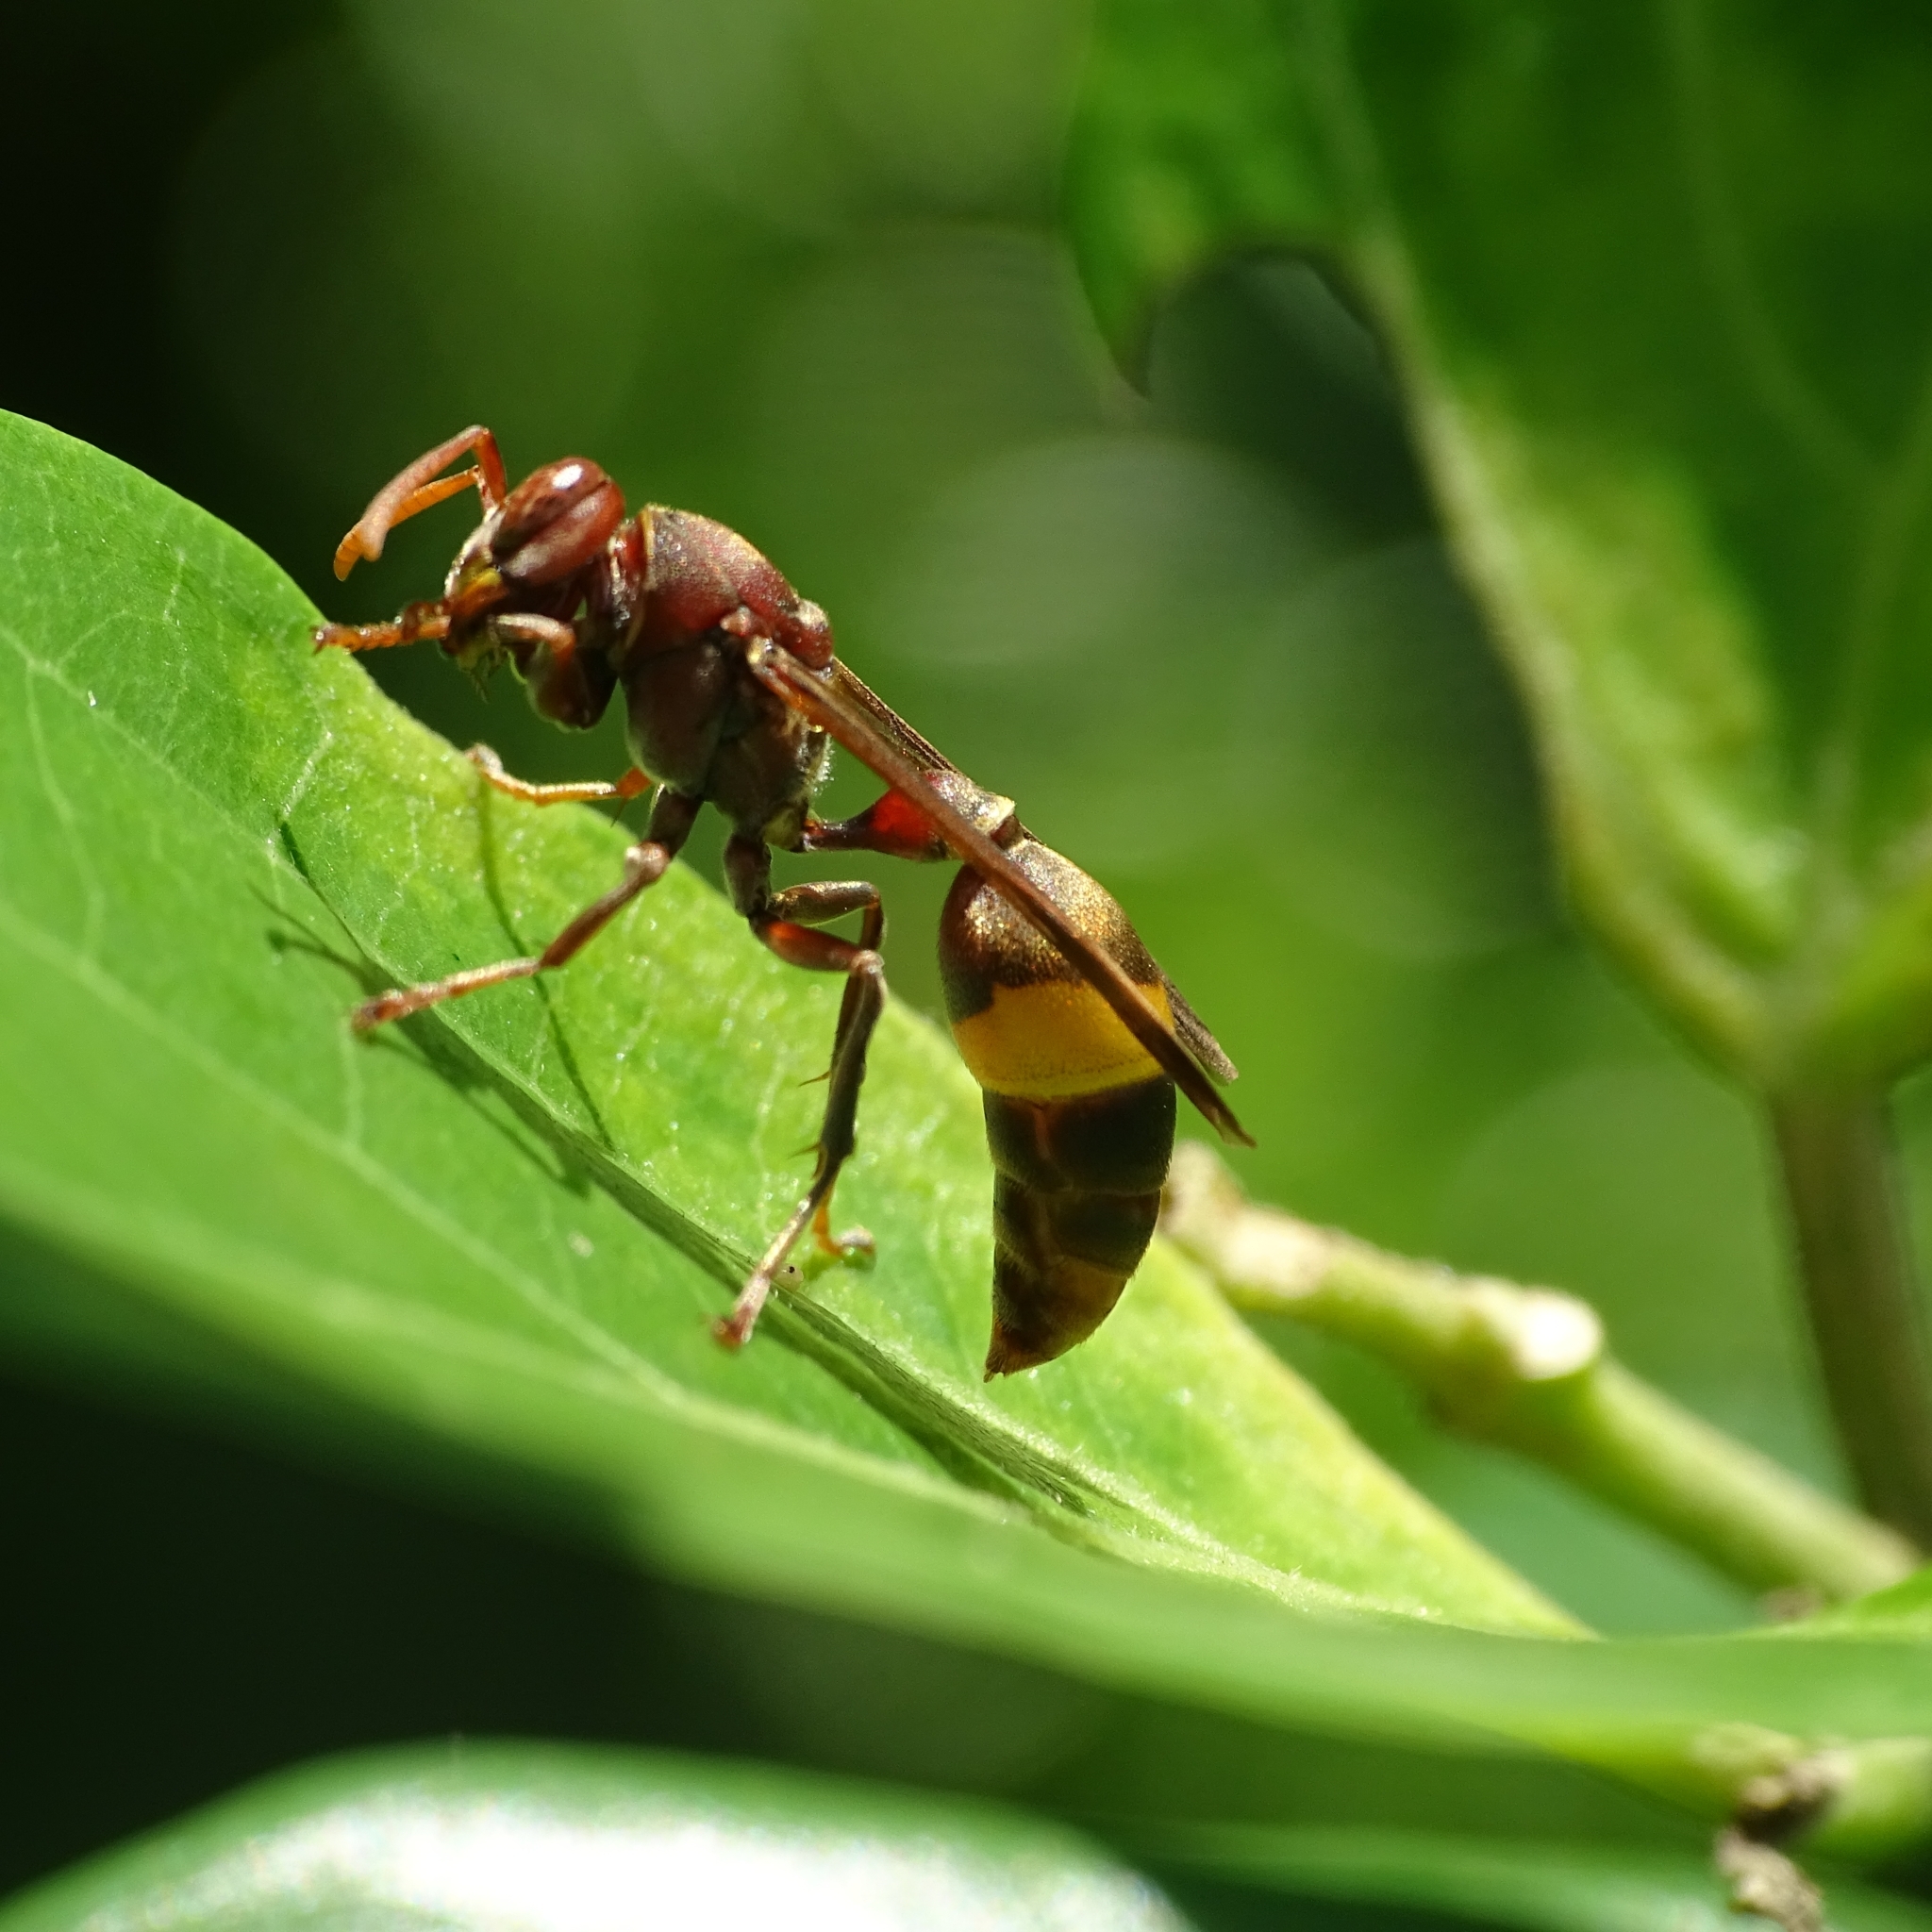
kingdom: Animalia
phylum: Arthropoda
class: Insecta
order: Hymenoptera
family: Vespidae
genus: Ropalidia
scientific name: Ropalidia
